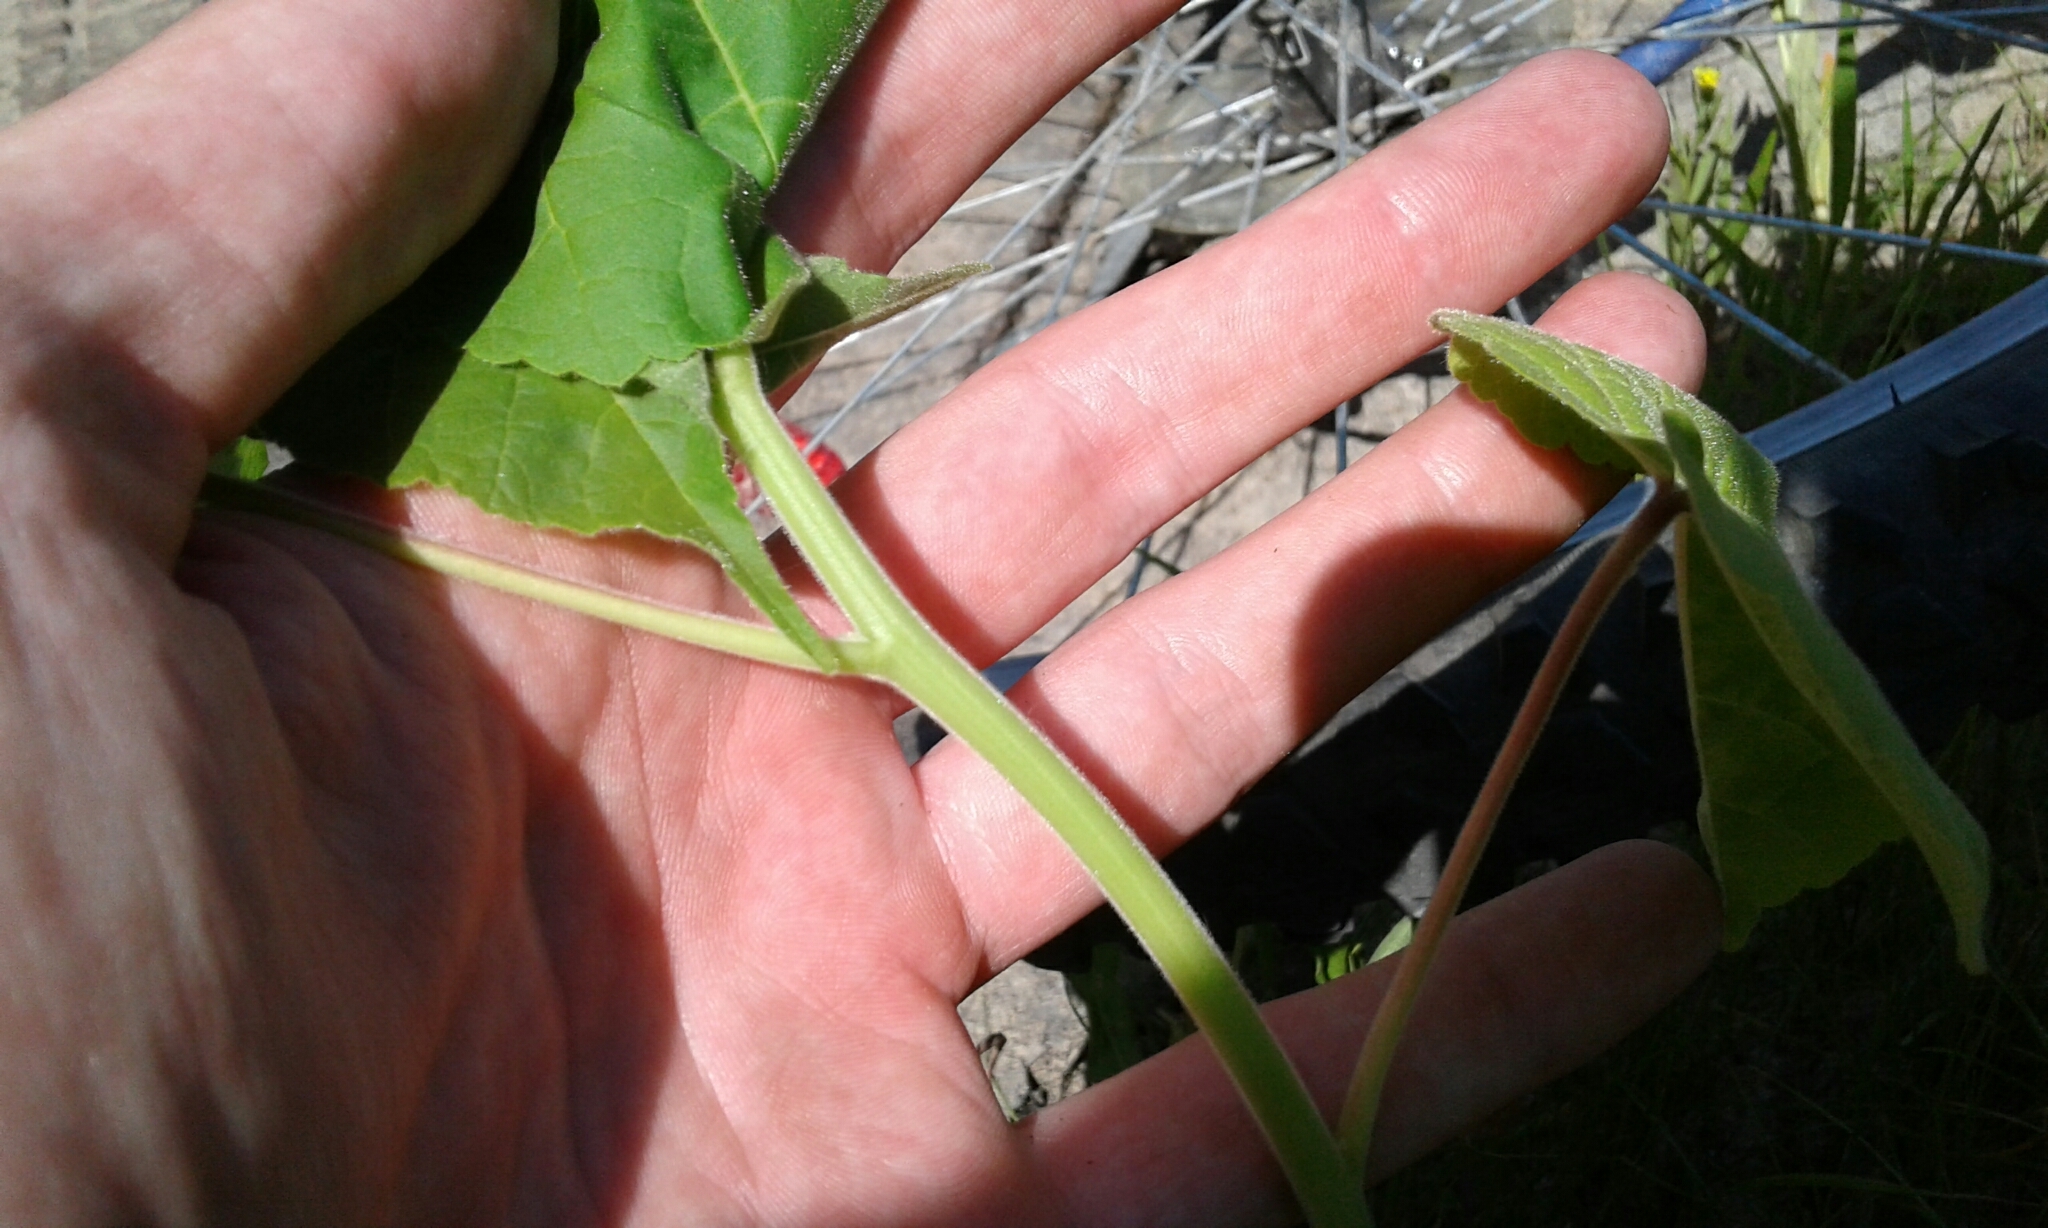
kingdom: Plantae
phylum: Tracheophyta
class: Magnoliopsida
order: Malvales
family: Malvaceae
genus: Abutilon
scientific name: Abutilon theophrasti
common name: Velvetleaf
